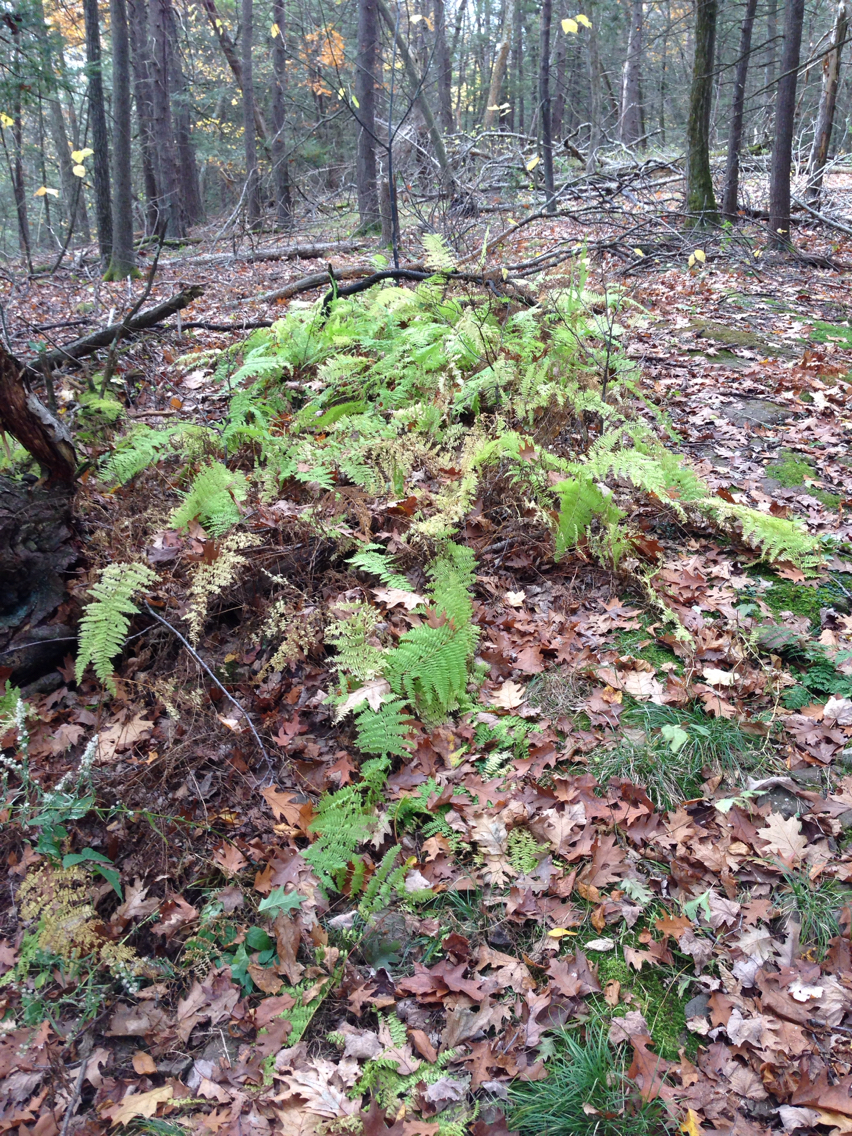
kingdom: Plantae
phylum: Tracheophyta
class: Polypodiopsida
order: Polypodiales
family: Dennstaedtiaceae
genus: Sitobolium
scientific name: Sitobolium punctilobum
